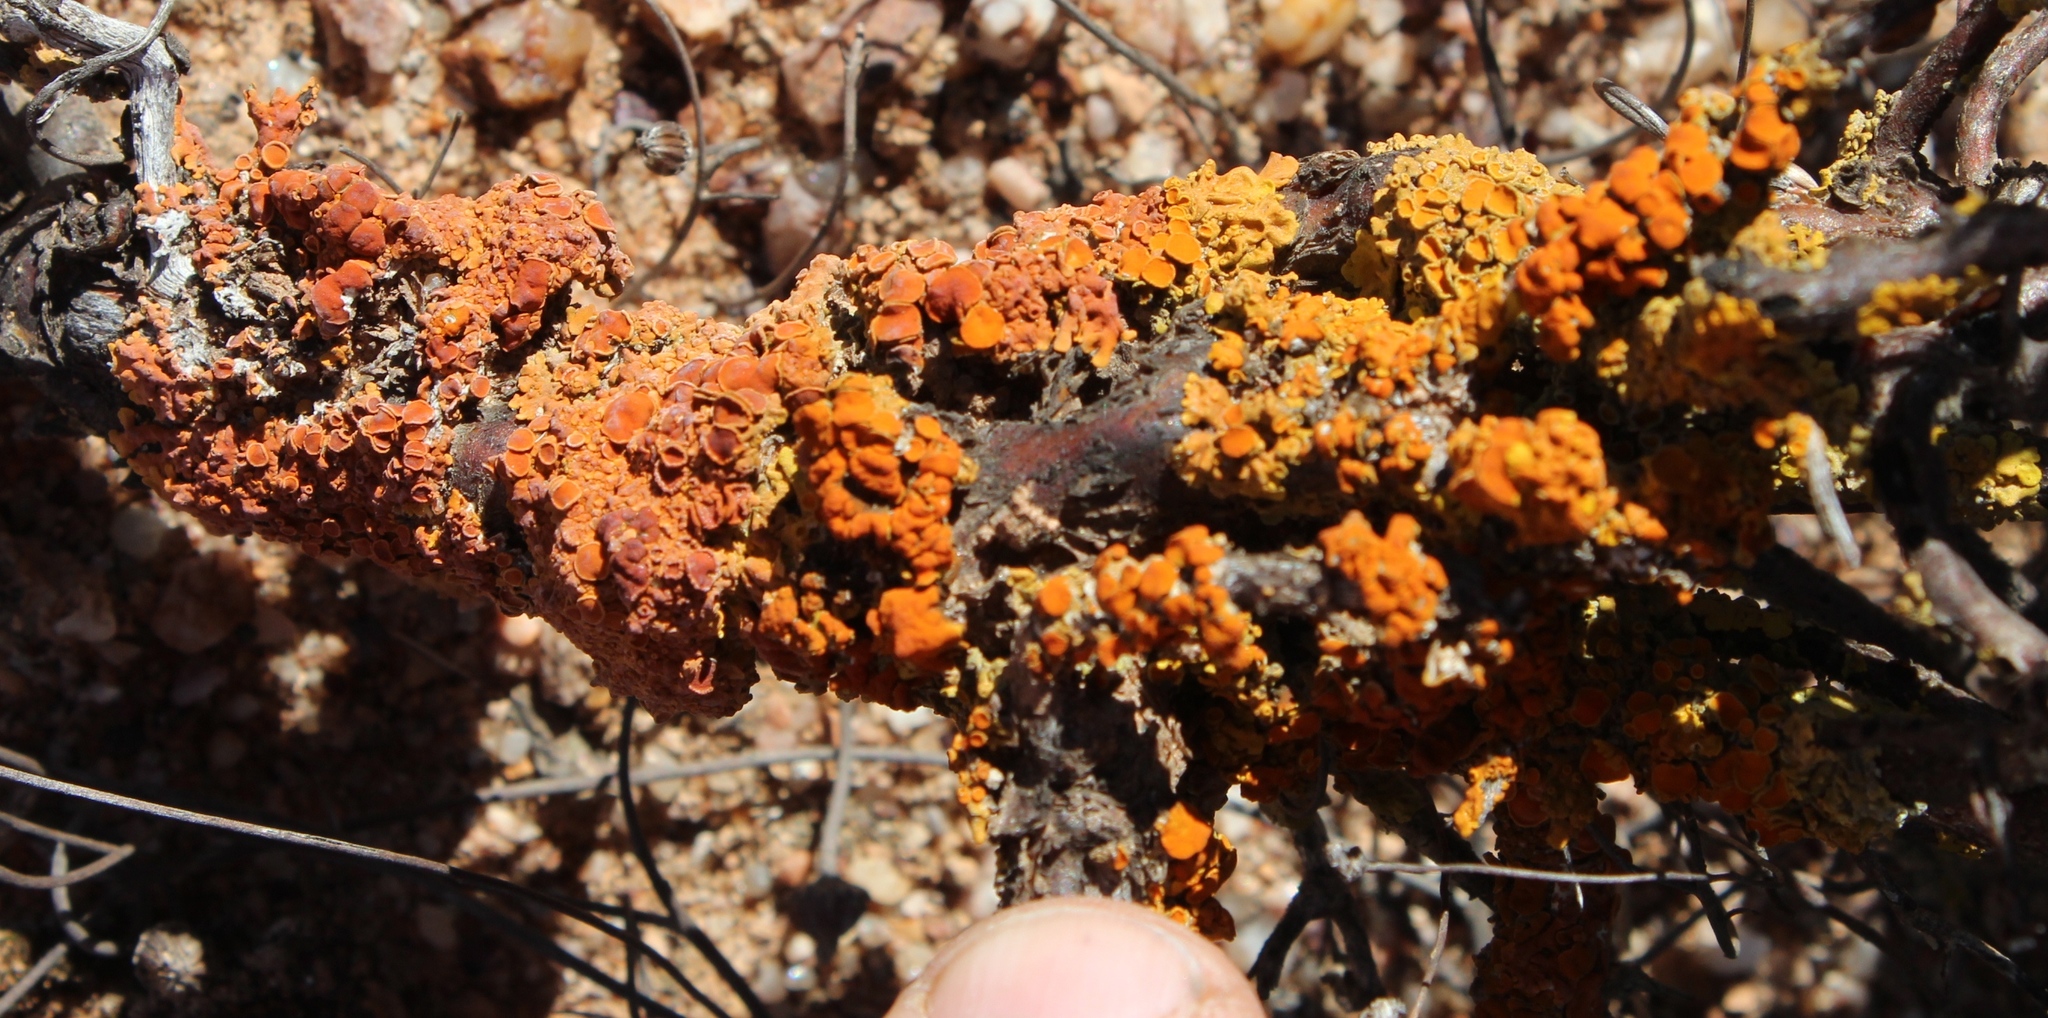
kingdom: Fungi
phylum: Ascomycota
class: Lecanoromycetes
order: Teloschistales
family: Teloschistaceae
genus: Dufourea
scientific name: Dufourea karrooensis
